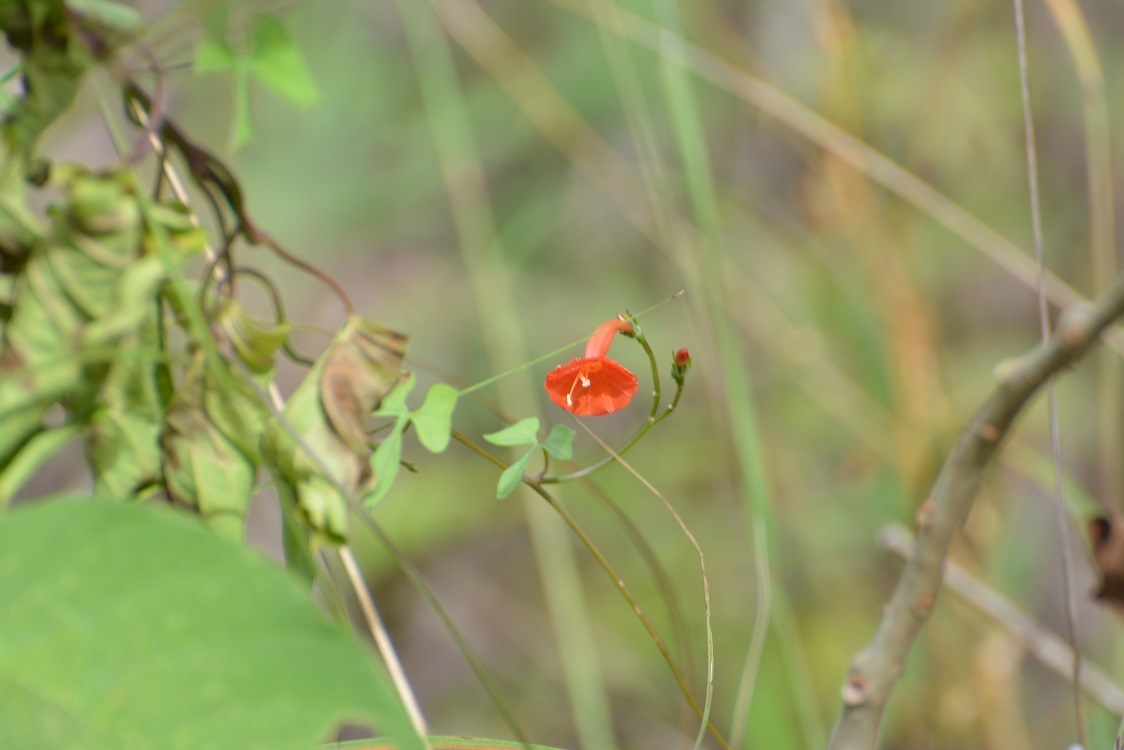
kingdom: Plantae
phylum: Tracheophyta
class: Magnoliopsida
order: Solanales
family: Convolvulaceae
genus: Ipomoea
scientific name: Ipomoea hederifolia
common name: Ivy-leaf morning-glory
